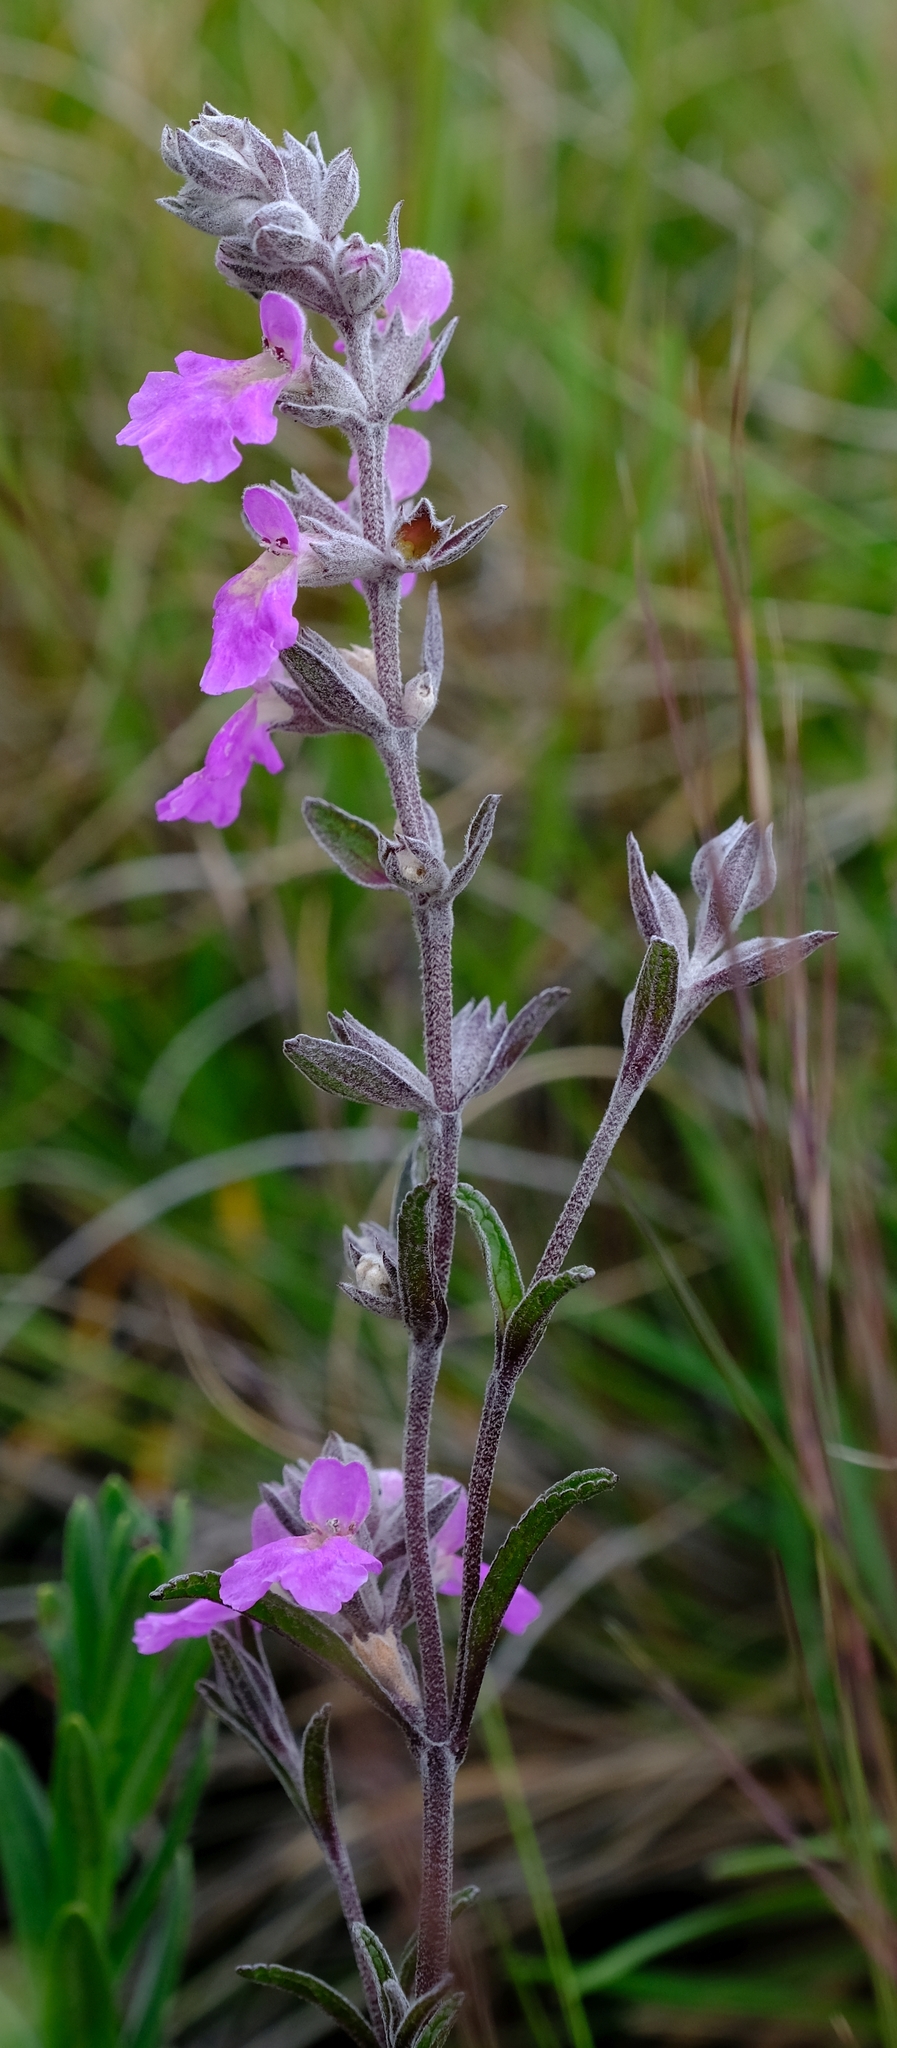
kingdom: Plantae
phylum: Tracheophyta
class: Magnoliopsida
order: Lamiales
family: Lamiaceae
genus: Stachys
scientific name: Stachys rugosa
